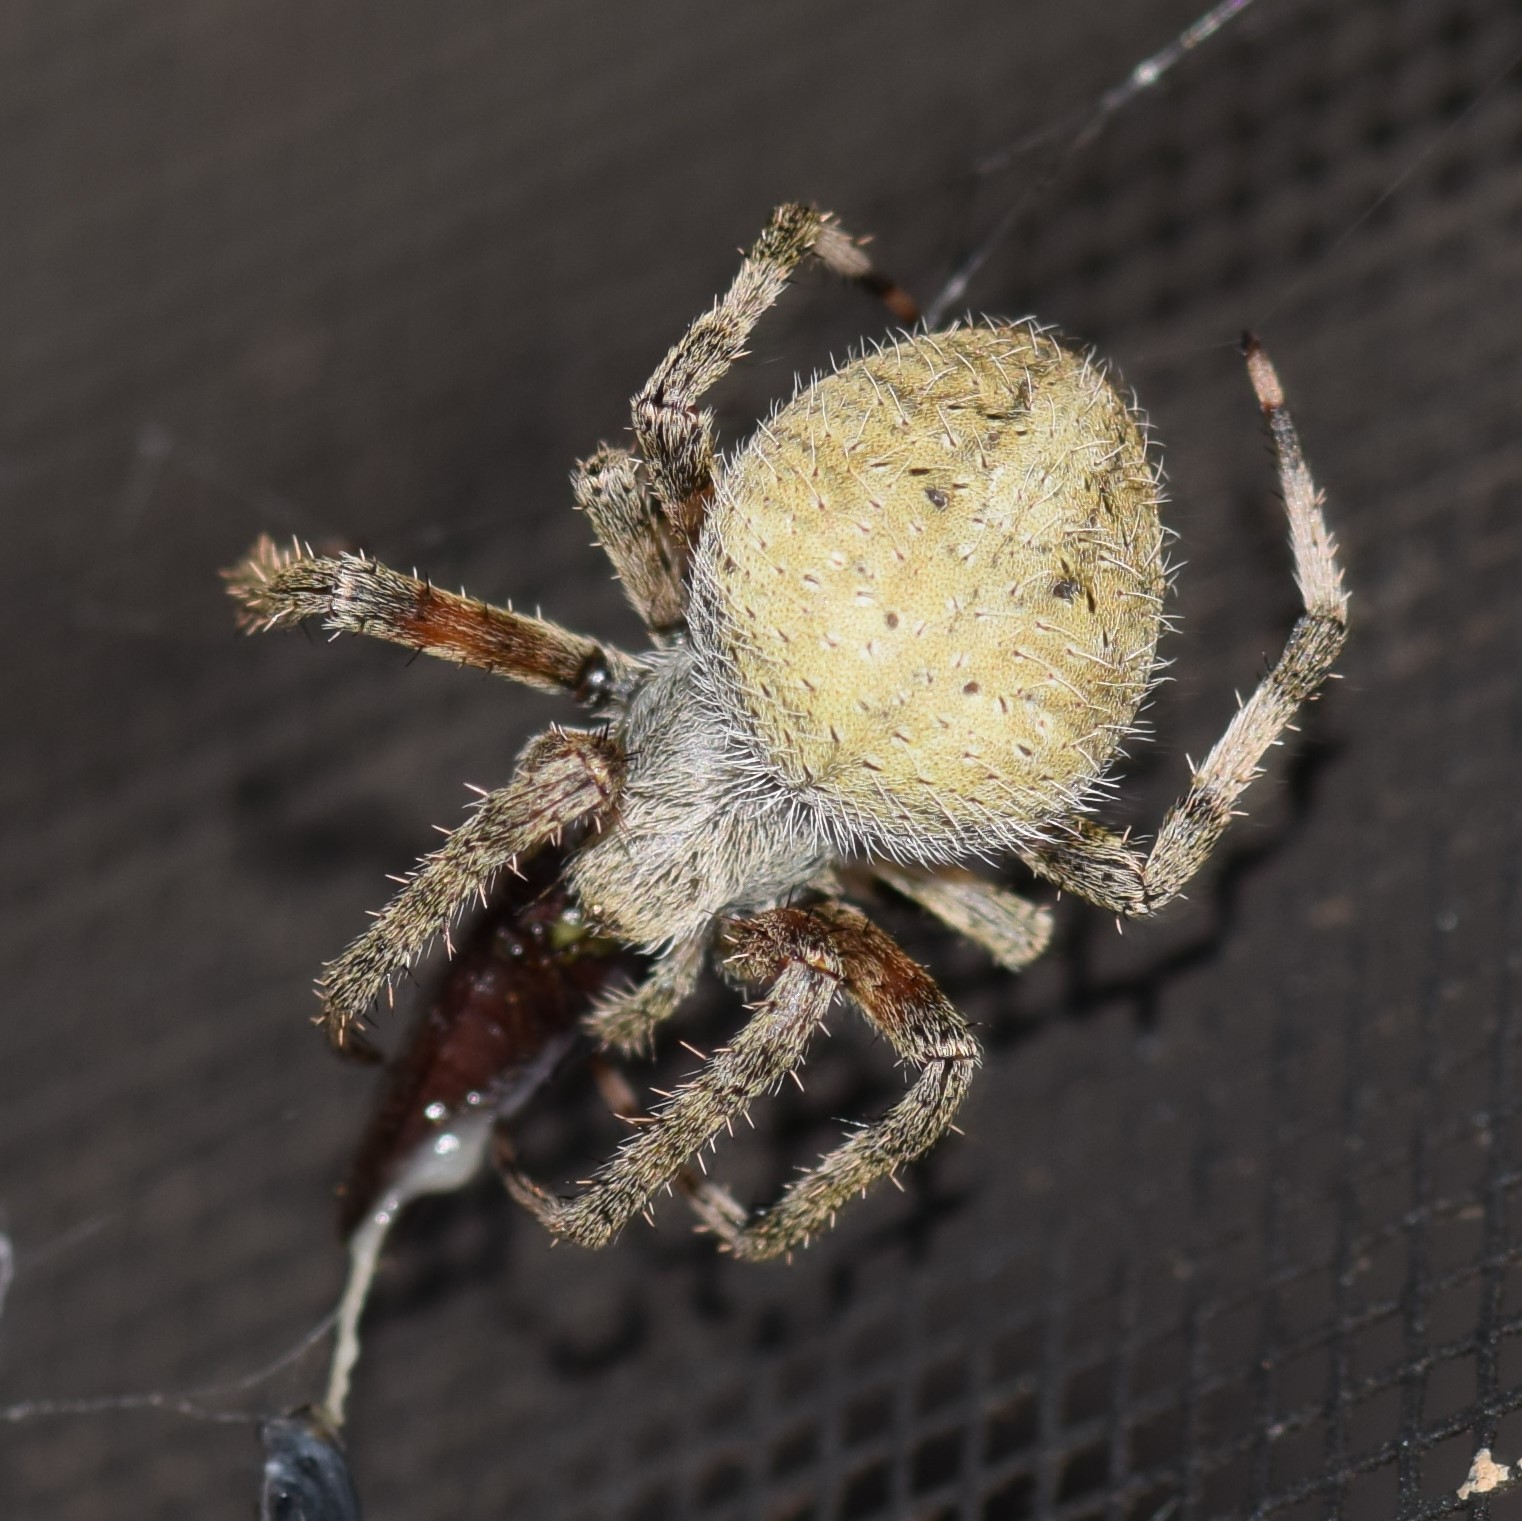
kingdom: Animalia
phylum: Arthropoda
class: Arachnida
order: Araneae
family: Araneidae
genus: Neoscona
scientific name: Neoscona crucifera
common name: Spotted orbweaver
